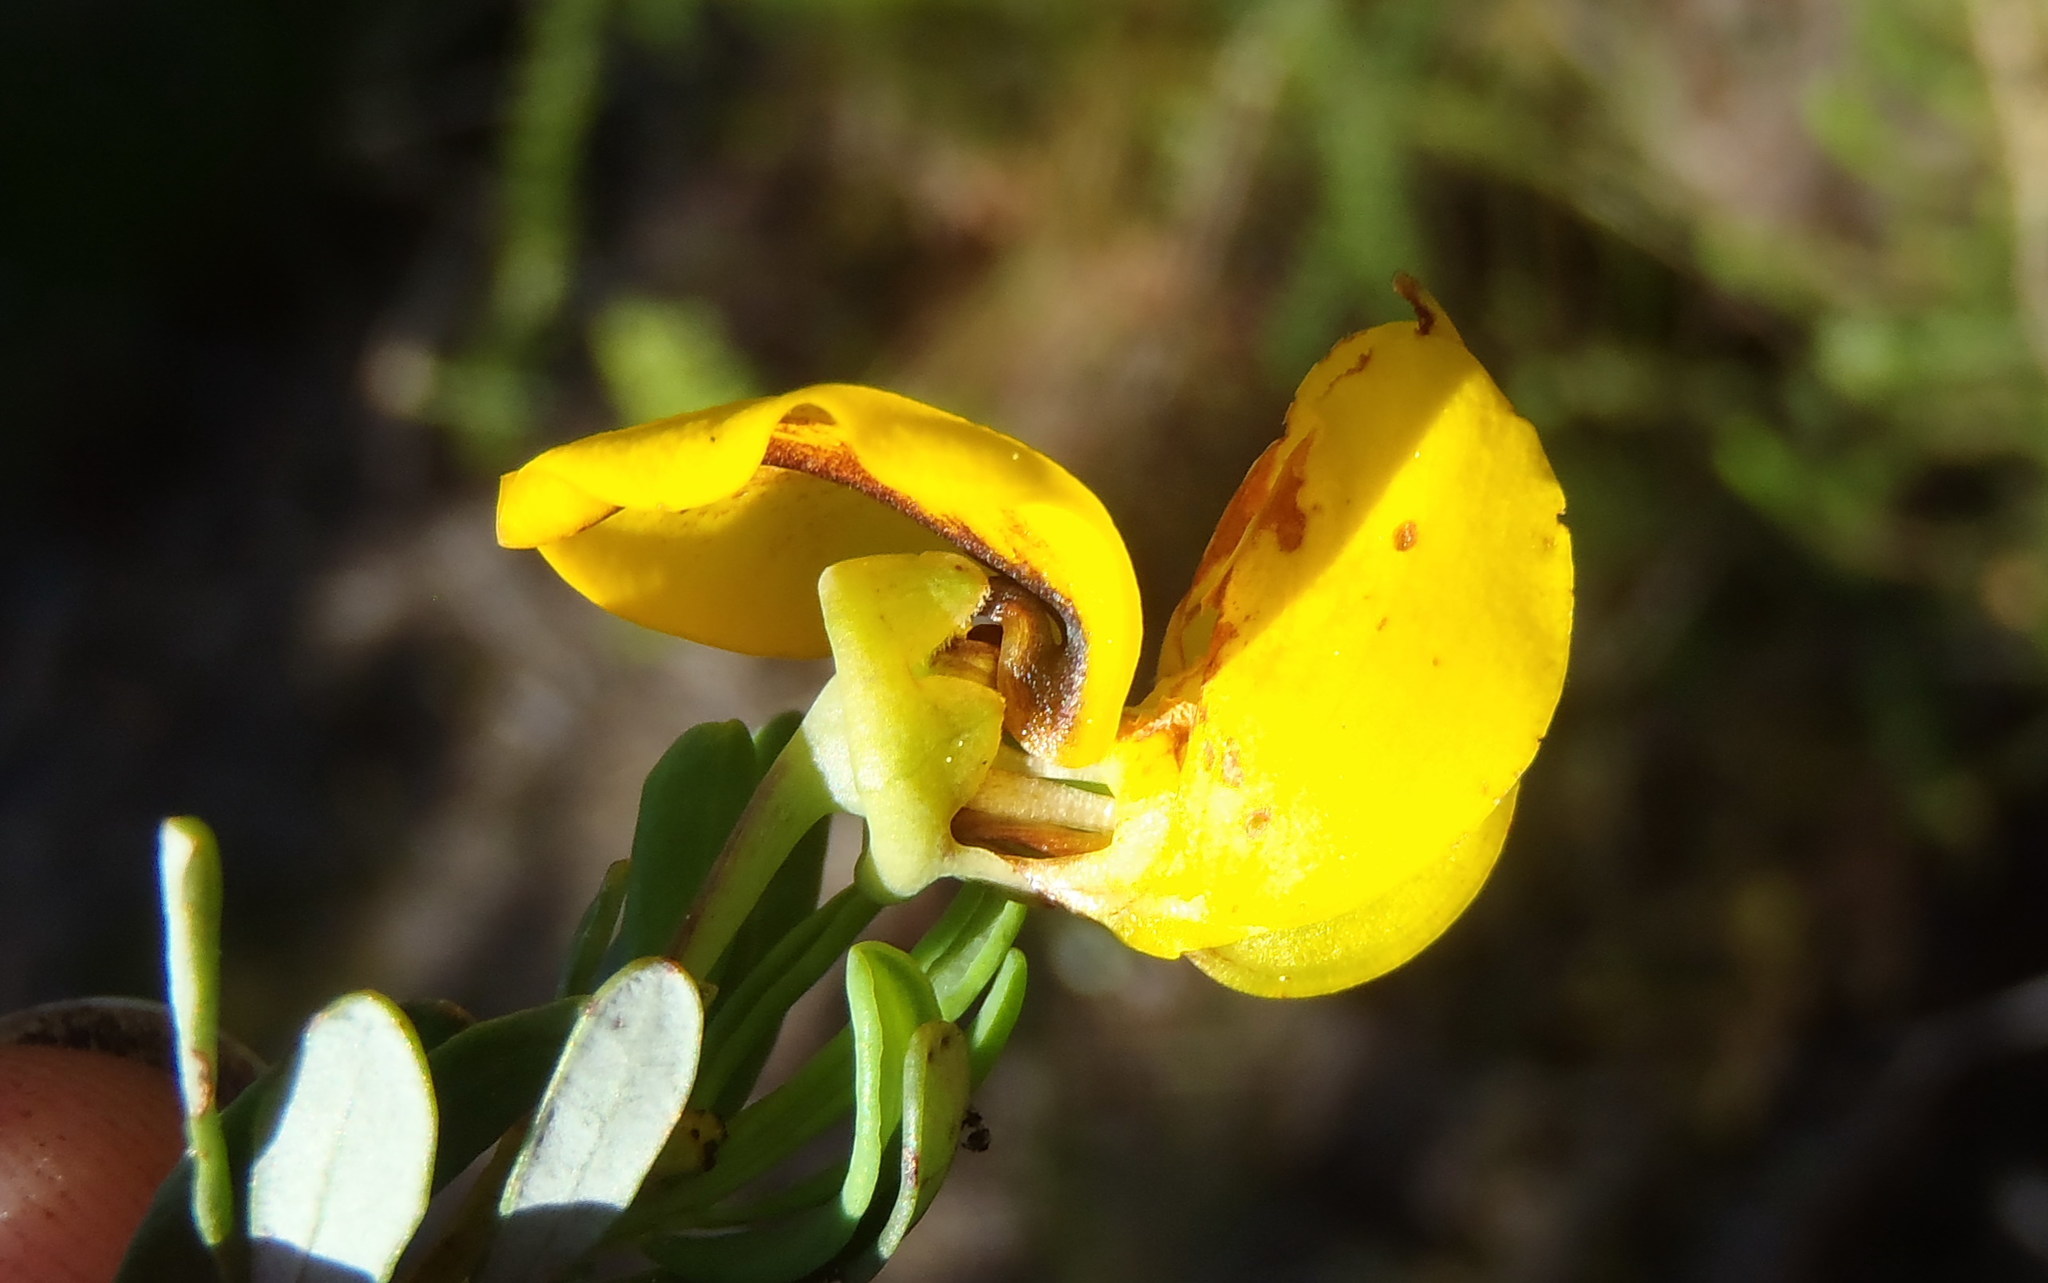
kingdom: Plantae
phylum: Tracheophyta
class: Magnoliopsida
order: Fabales
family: Fabaceae
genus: Cyclopia
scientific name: Cyclopia subternata
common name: Honeybush tea
